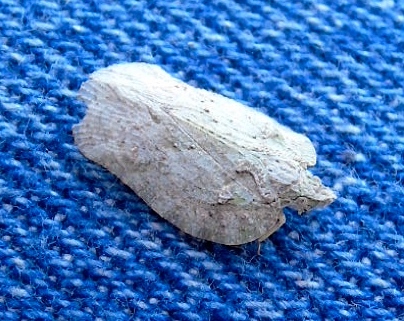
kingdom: Animalia
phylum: Arthropoda
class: Insecta
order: Hemiptera
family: Flatidae
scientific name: Flatidae
